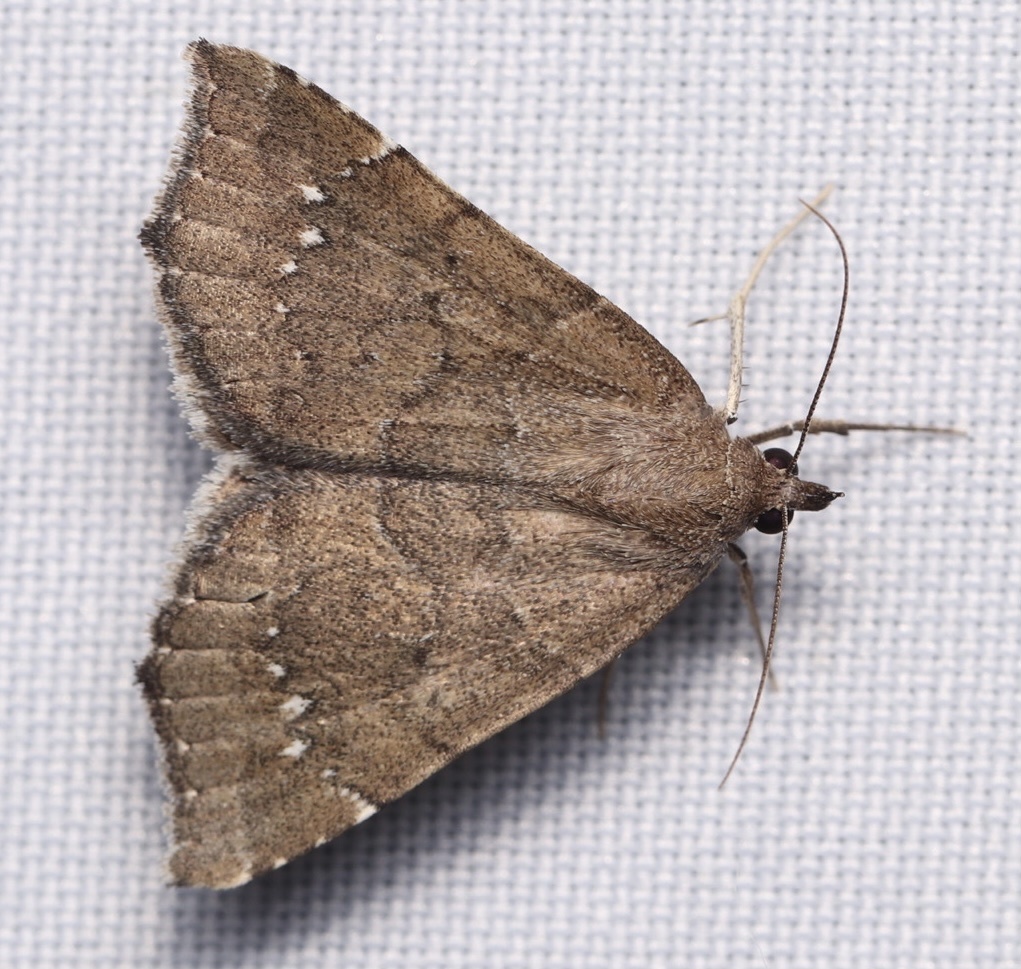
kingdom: Animalia
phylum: Arthropoda
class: Insecta
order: Lepidoptera
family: Erebidae
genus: Focillidia
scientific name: Focillidia texana
